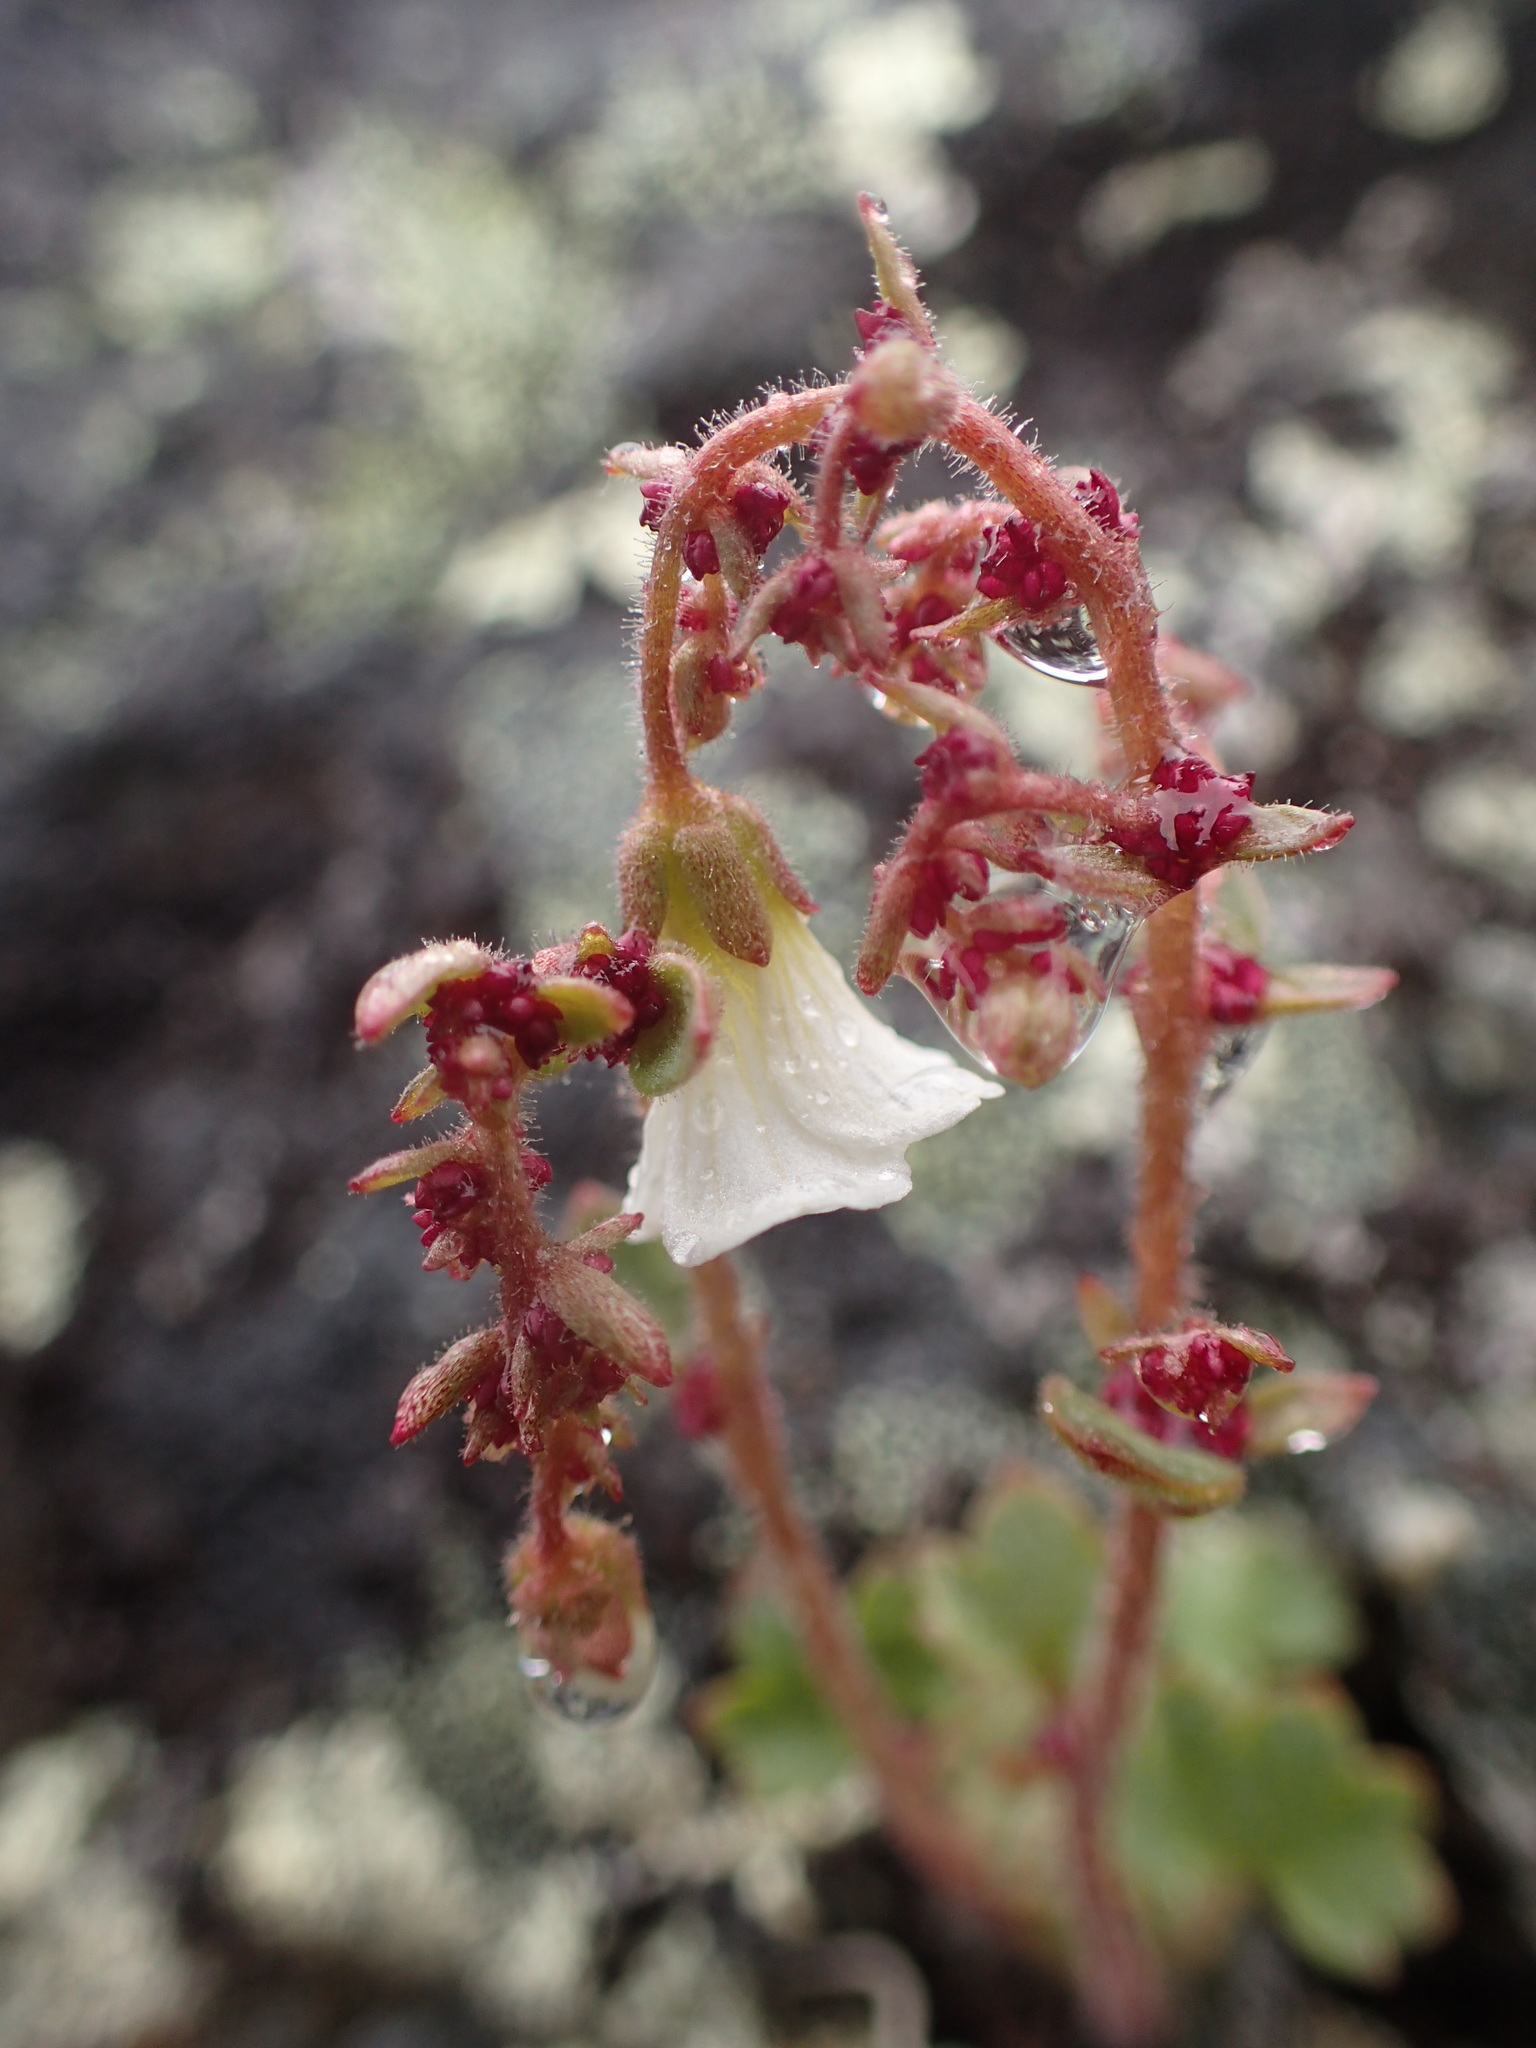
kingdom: Plantae
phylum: Tracheophyta
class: Magnoliopsida
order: Saxifragales
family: Saxifragaceae
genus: Saxifraga
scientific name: Saxifraga cernua
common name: Drooping saxifrage
